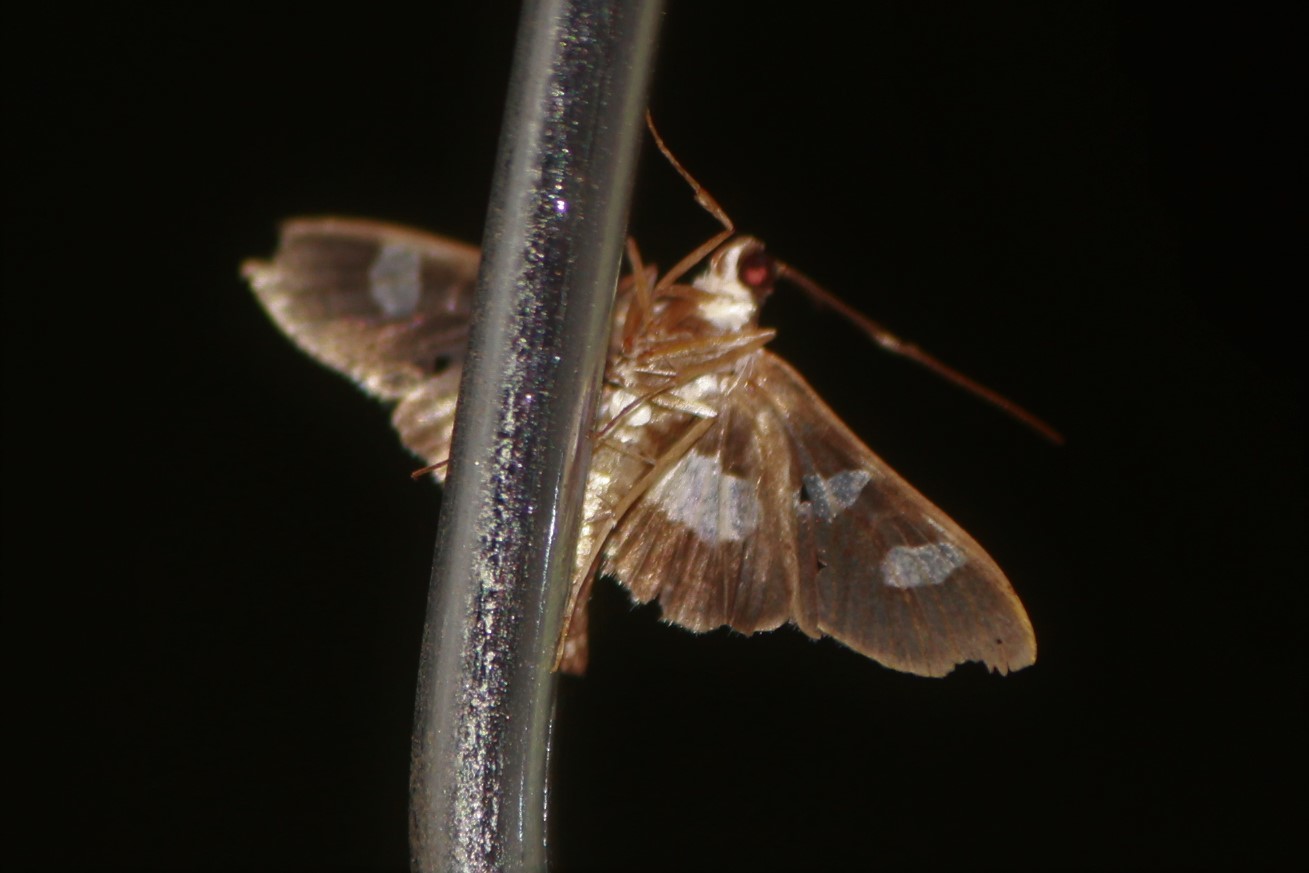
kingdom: Animalia
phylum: Arthropoda
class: Insecta
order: Lepidoptera
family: Crambidae
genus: Desmia
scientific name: Desmia funeralis
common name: Grape leaf folder moth
